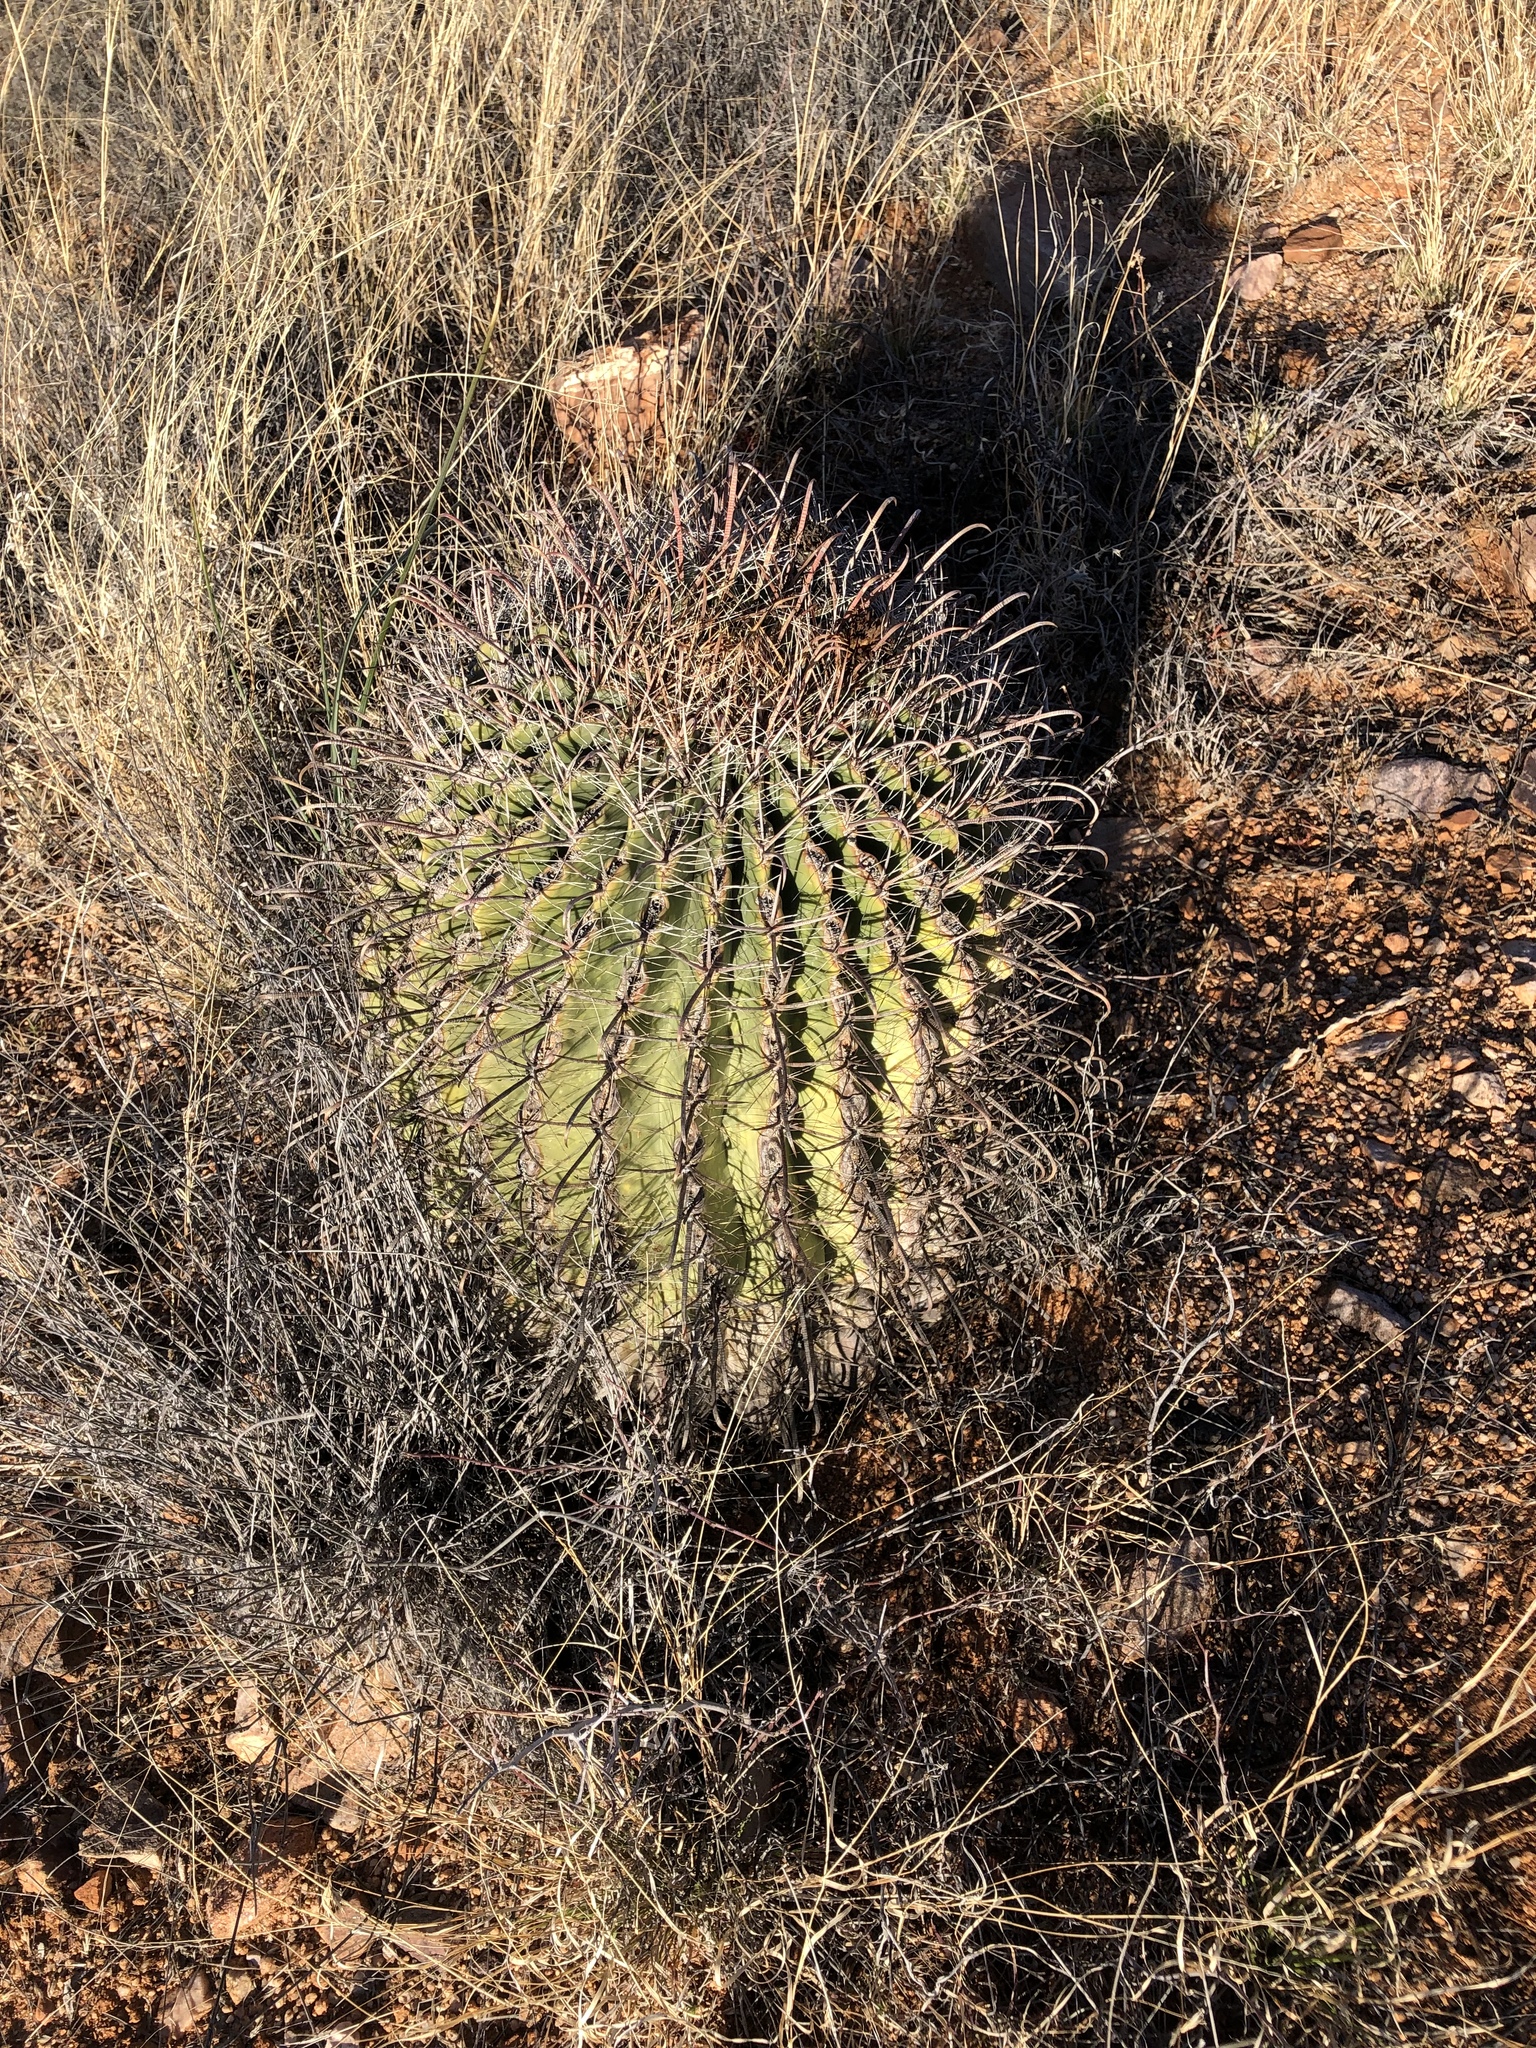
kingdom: Plantae
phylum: Tracheophyta
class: Magnoliopsida
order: Caryophyllales
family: Cactaceae
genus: Ferocactus
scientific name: Ferocactus wislizeni
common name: Candy barrel cactus
